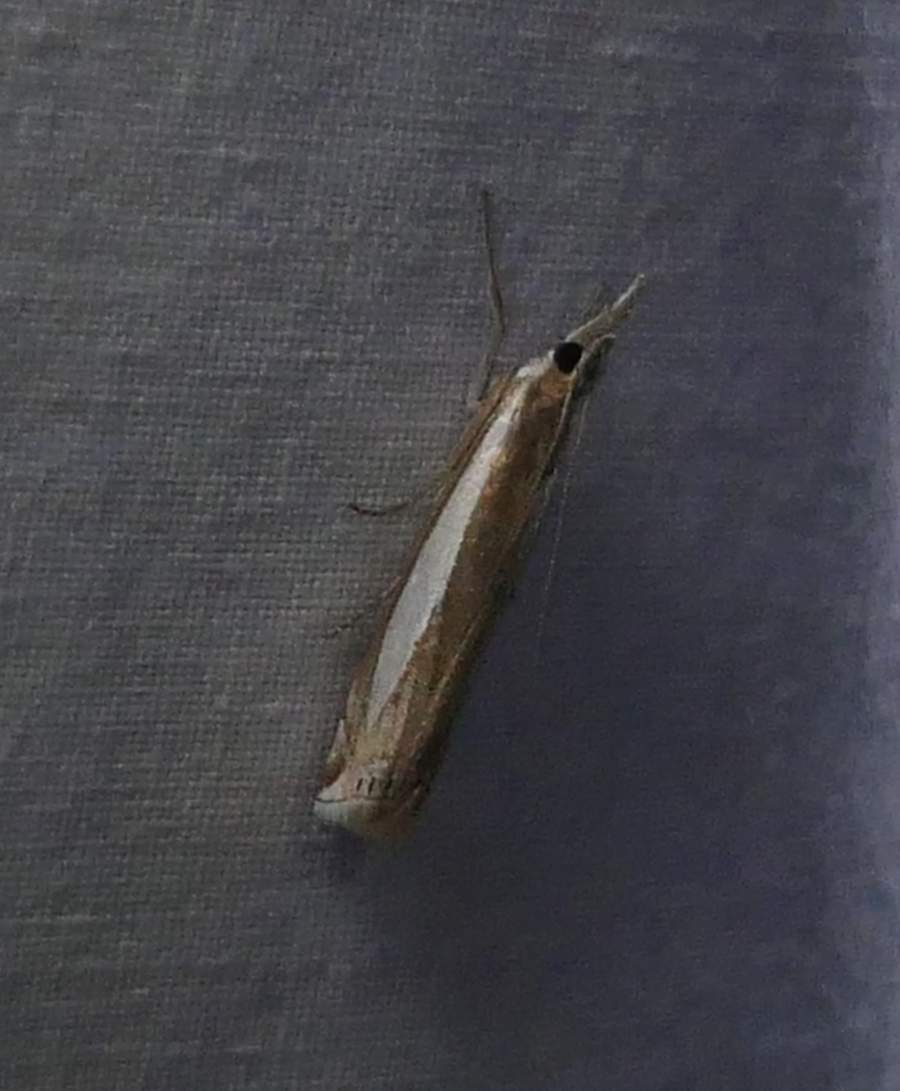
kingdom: Animalia
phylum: Arthropoda
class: Insecta
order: Lepidoptera
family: Crambidae
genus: Crambus
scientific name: Crambus
